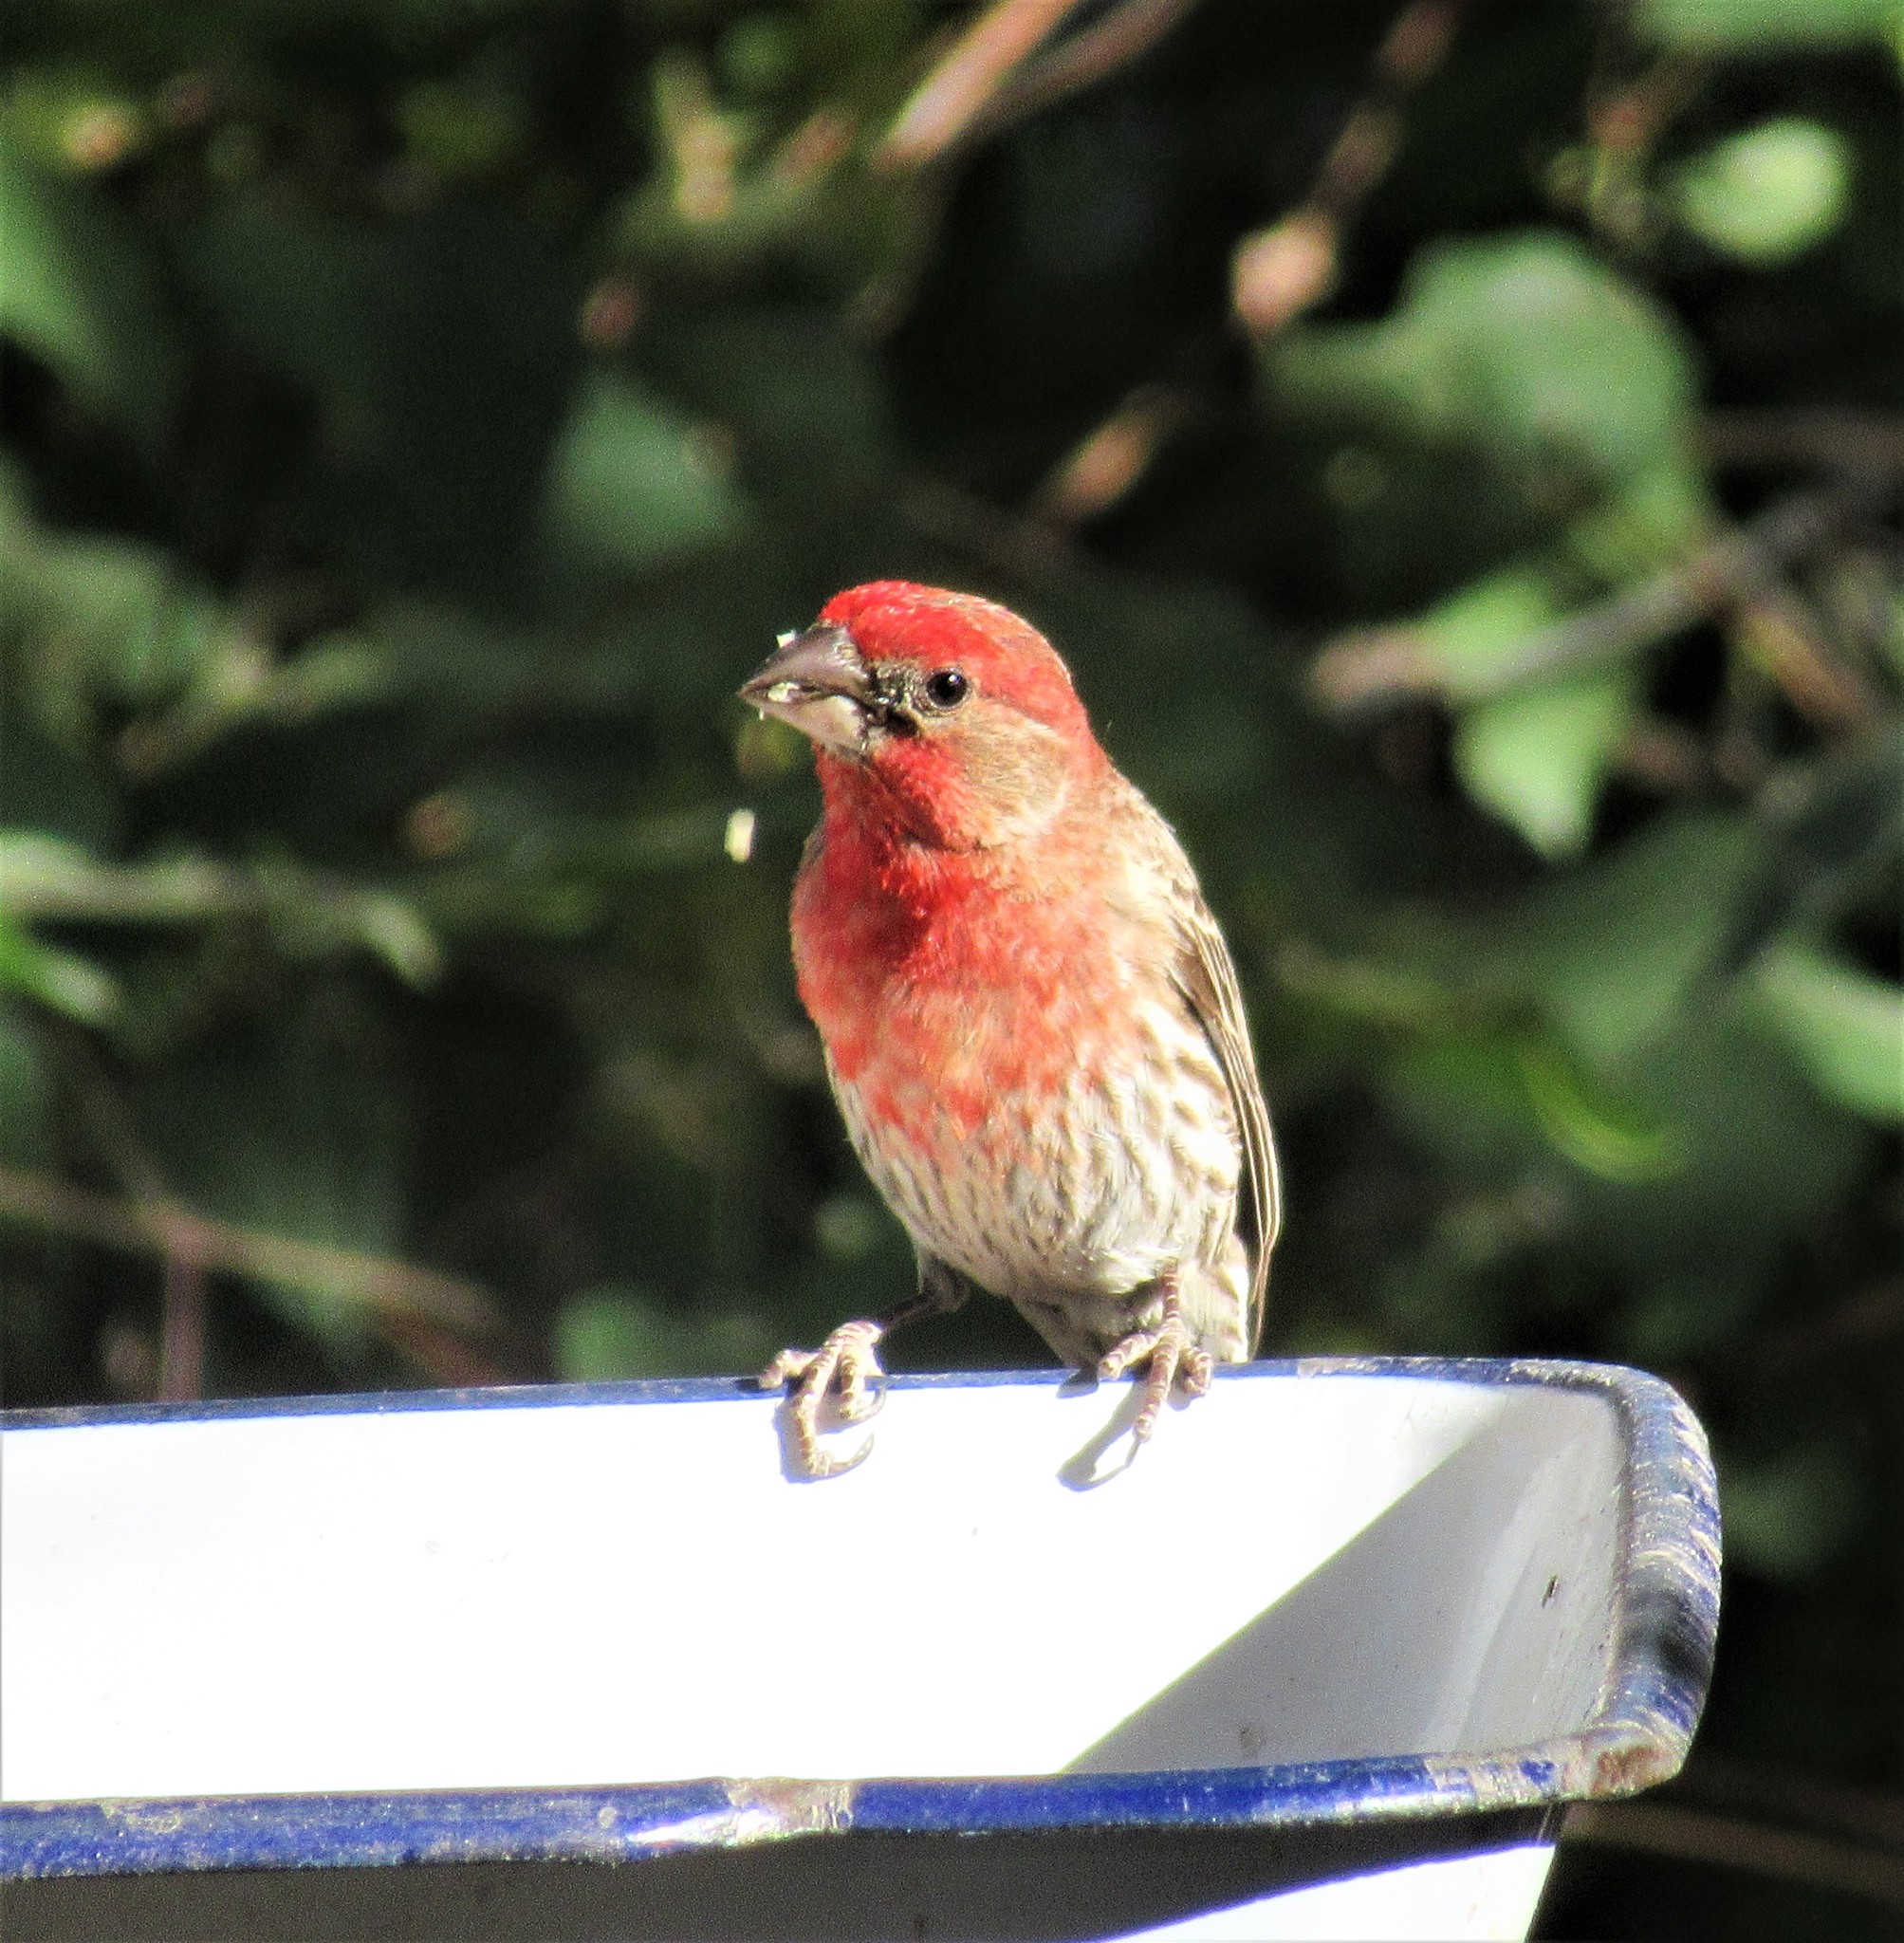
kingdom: Animalia
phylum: Chordata
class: Aves
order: Passeriformes
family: Fringillidae
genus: Haemorhous
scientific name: Haemorhous mexicanus
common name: House finch
